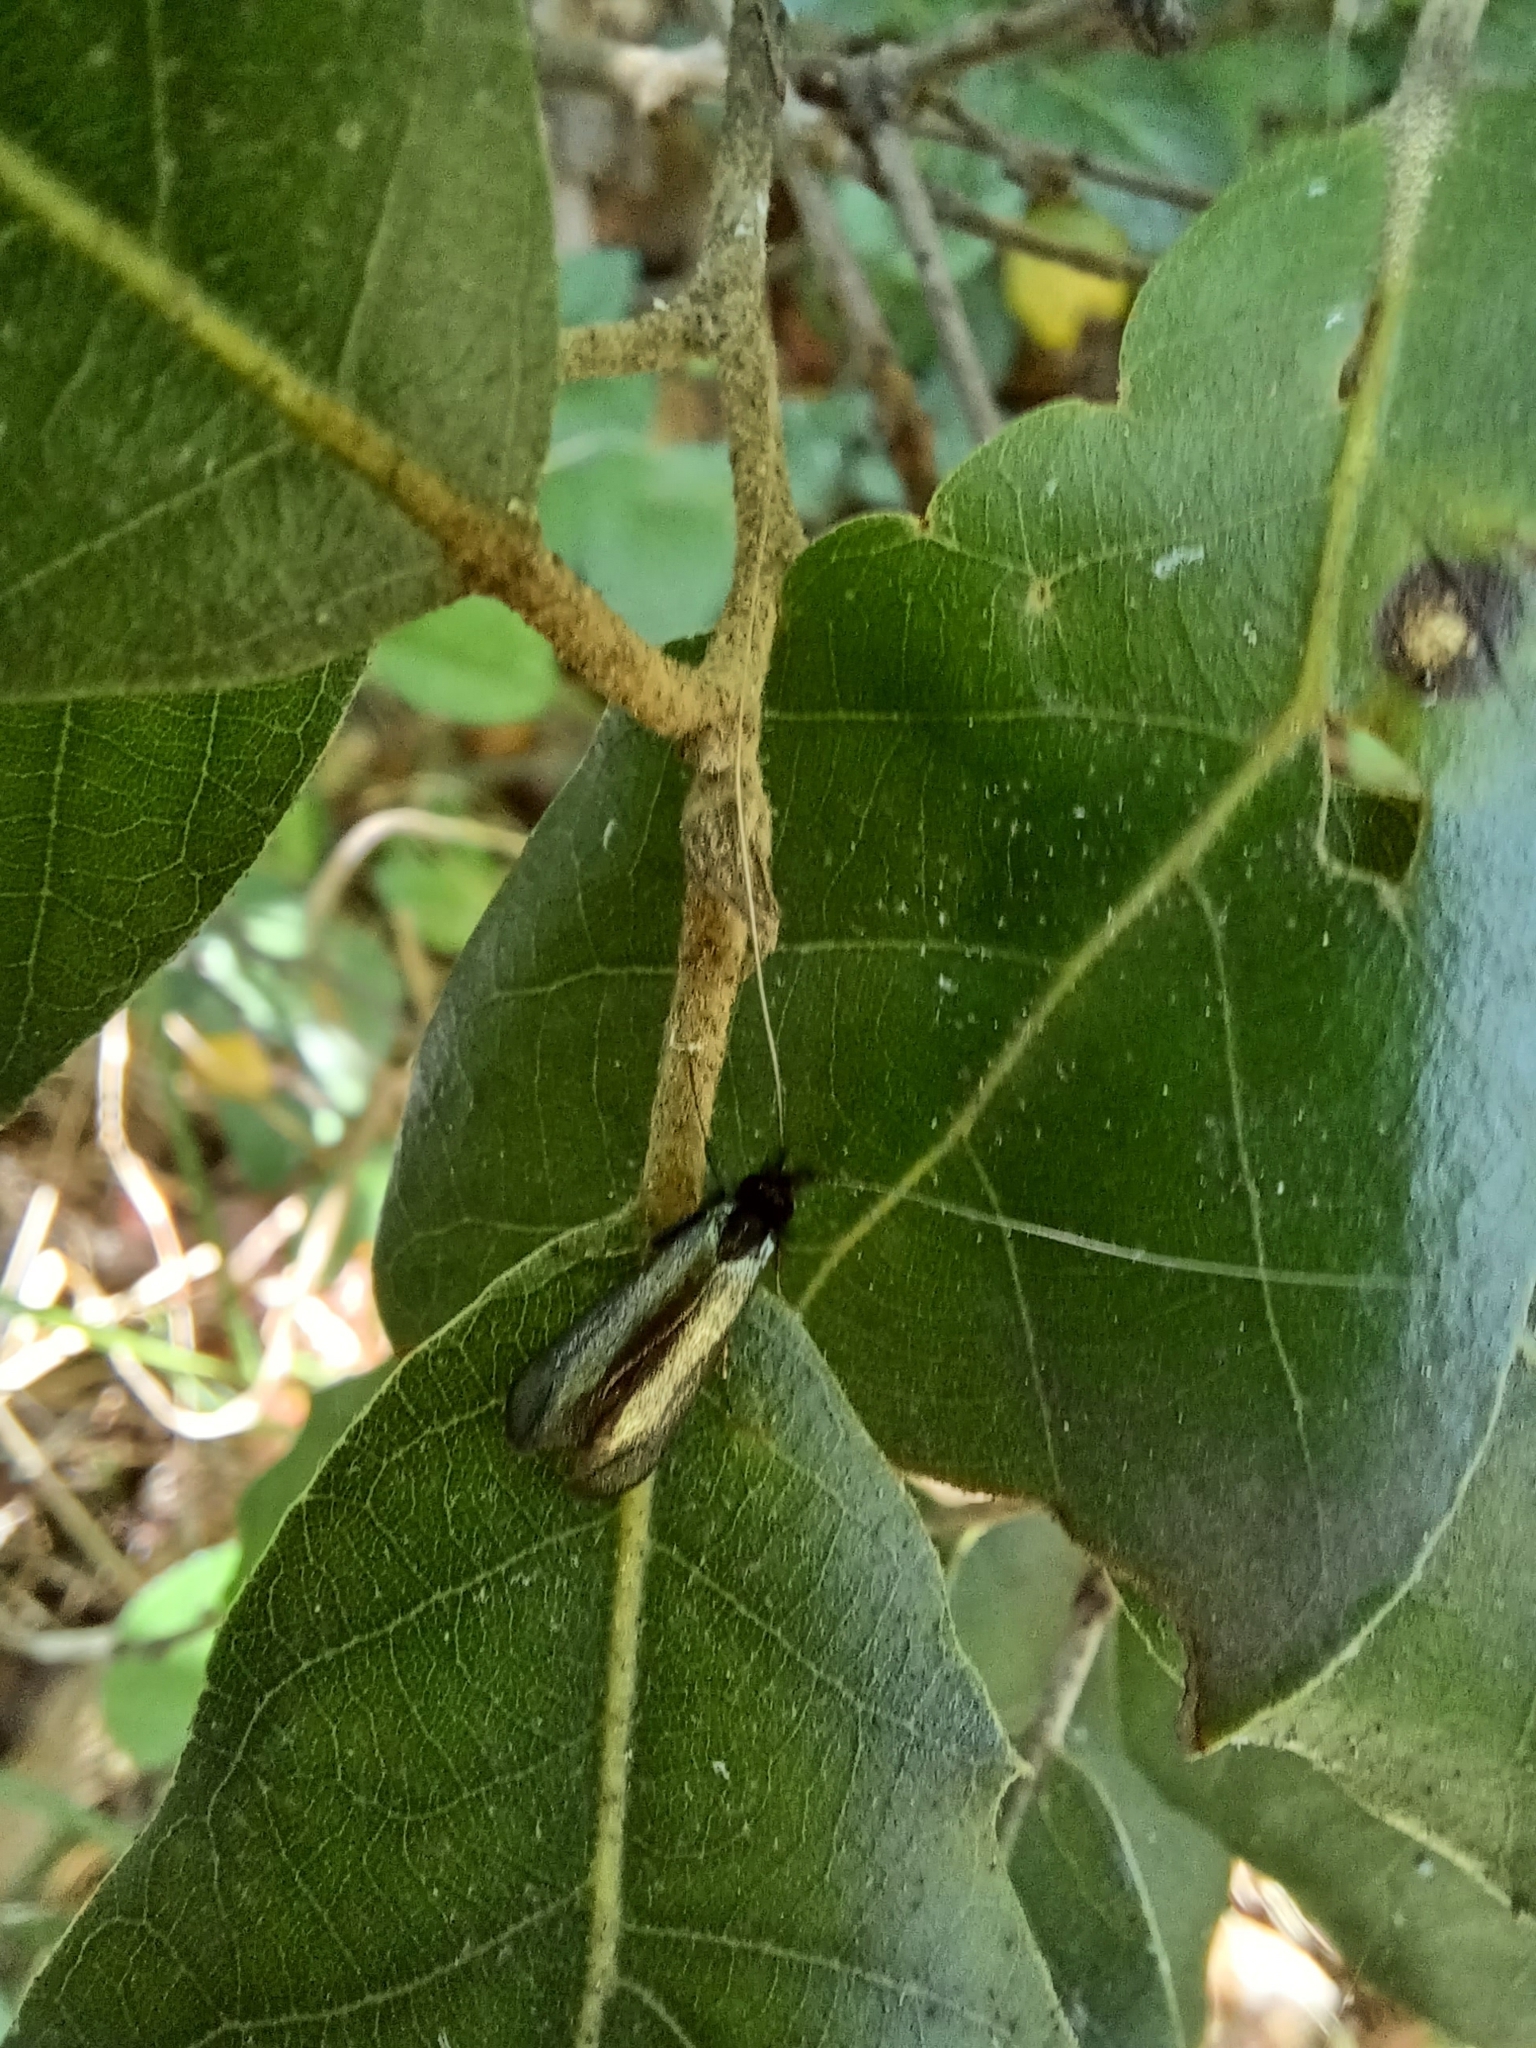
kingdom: Animalia
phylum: Arthropoda
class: Insecta
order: Lepidoptera
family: Adelidae
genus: Adela
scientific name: Adela viridella
